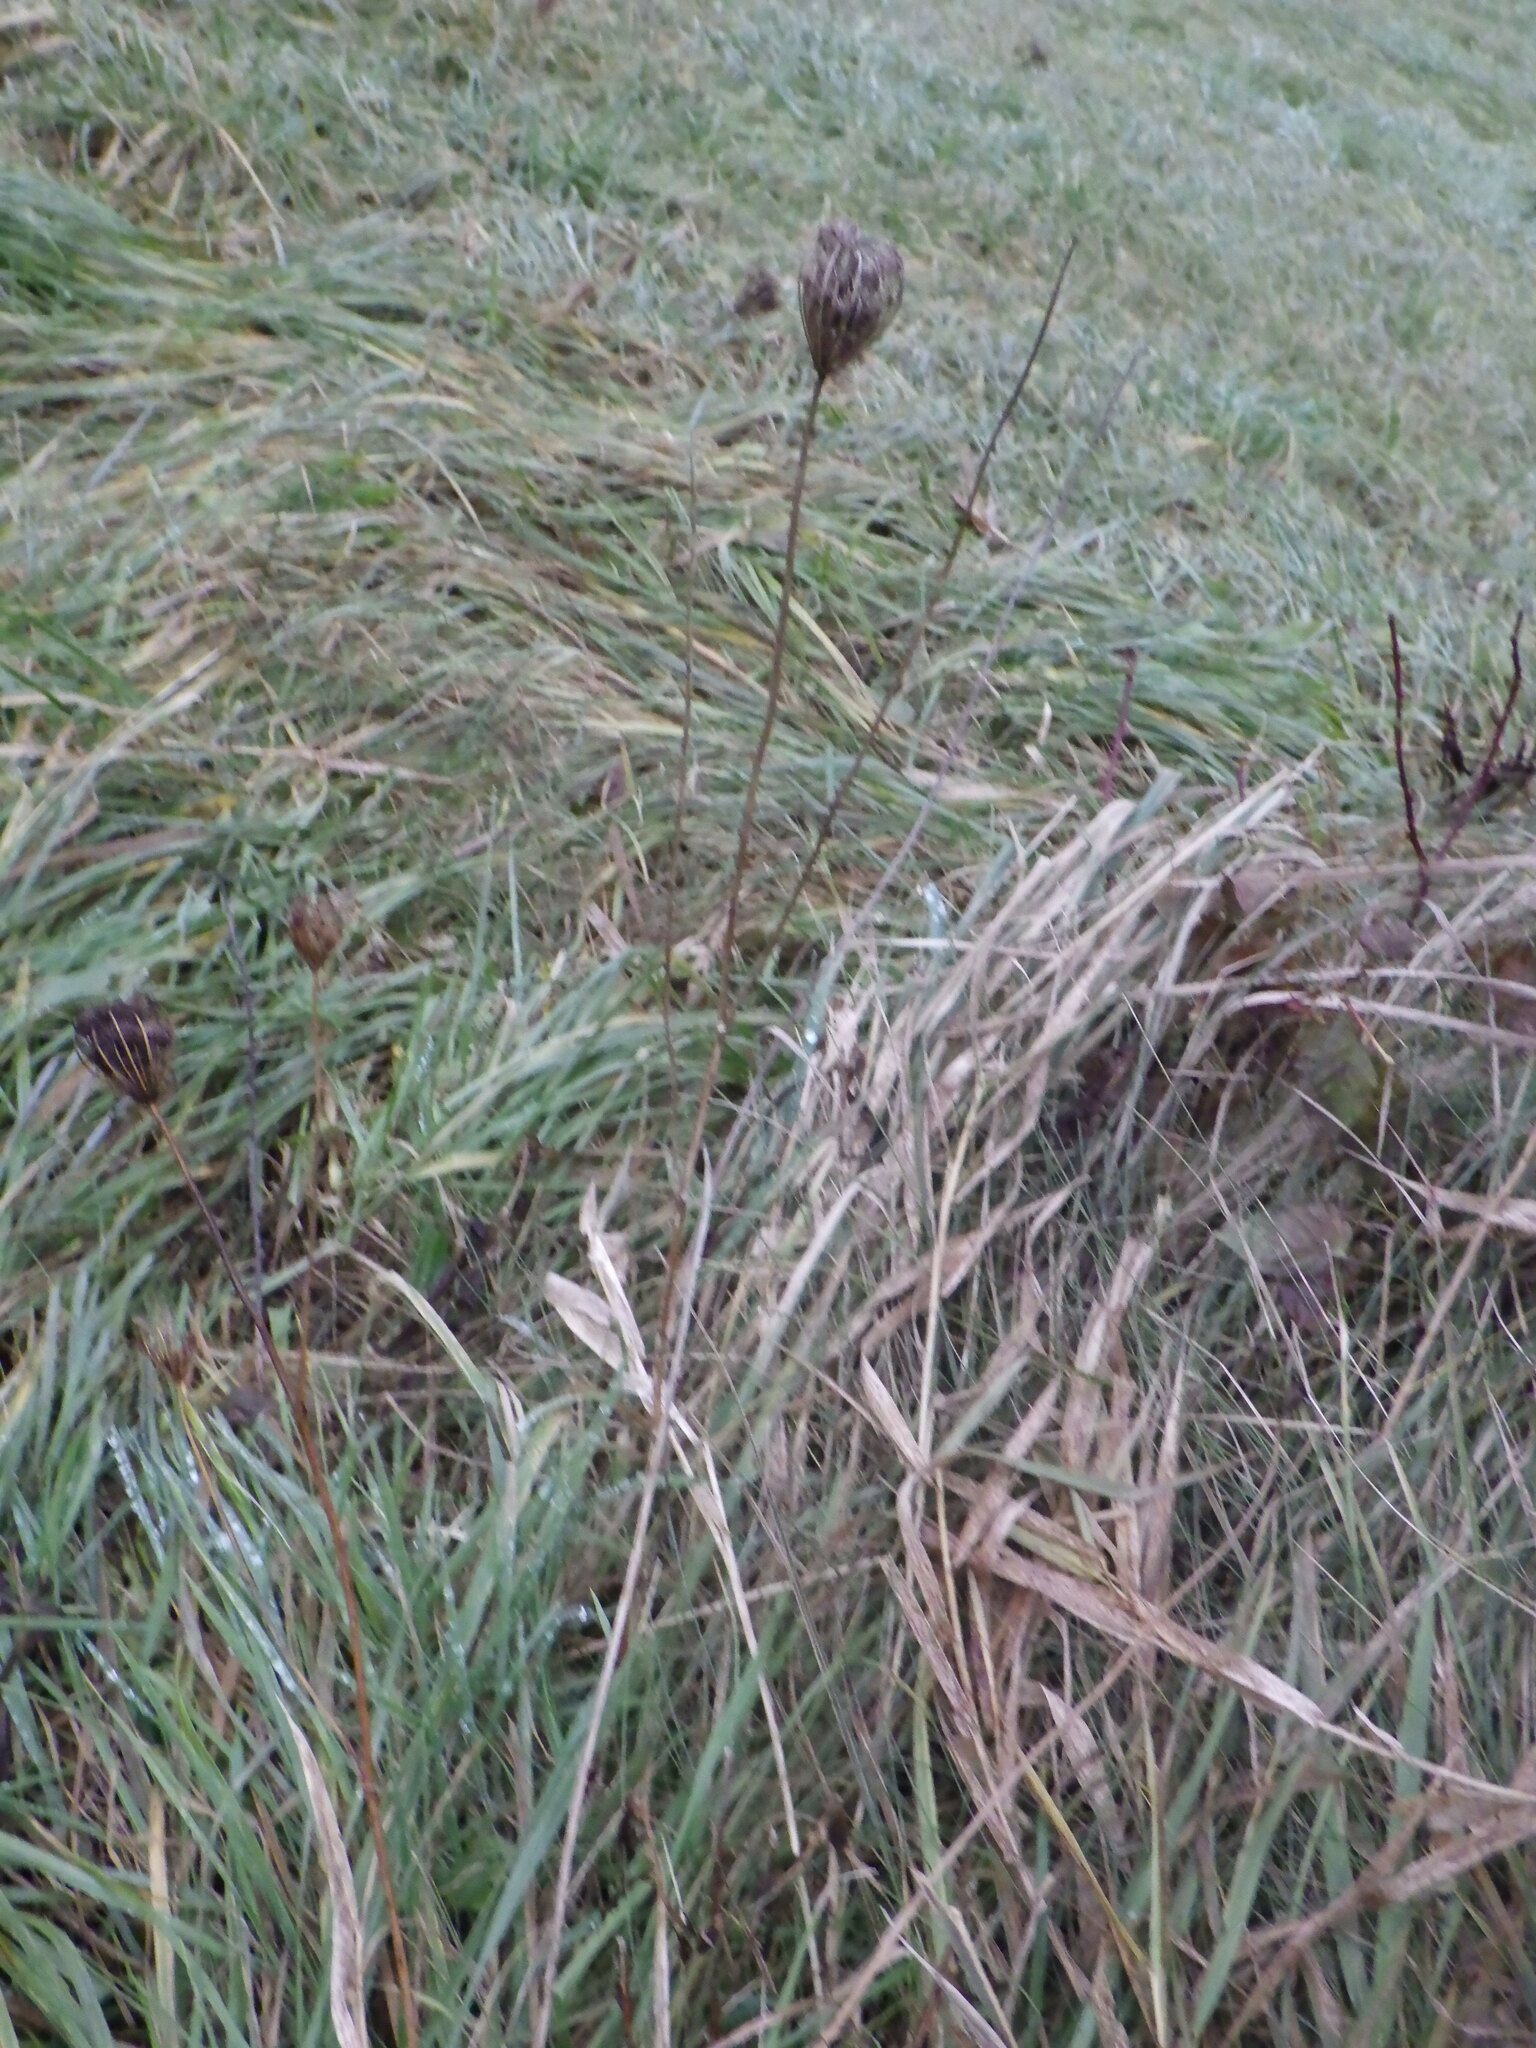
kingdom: Plantae
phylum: Tracheophyta
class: Magnoliopsida
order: Apiales
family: Apiaceae
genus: Daucus
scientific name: Daucus carota
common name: Wild carrot
